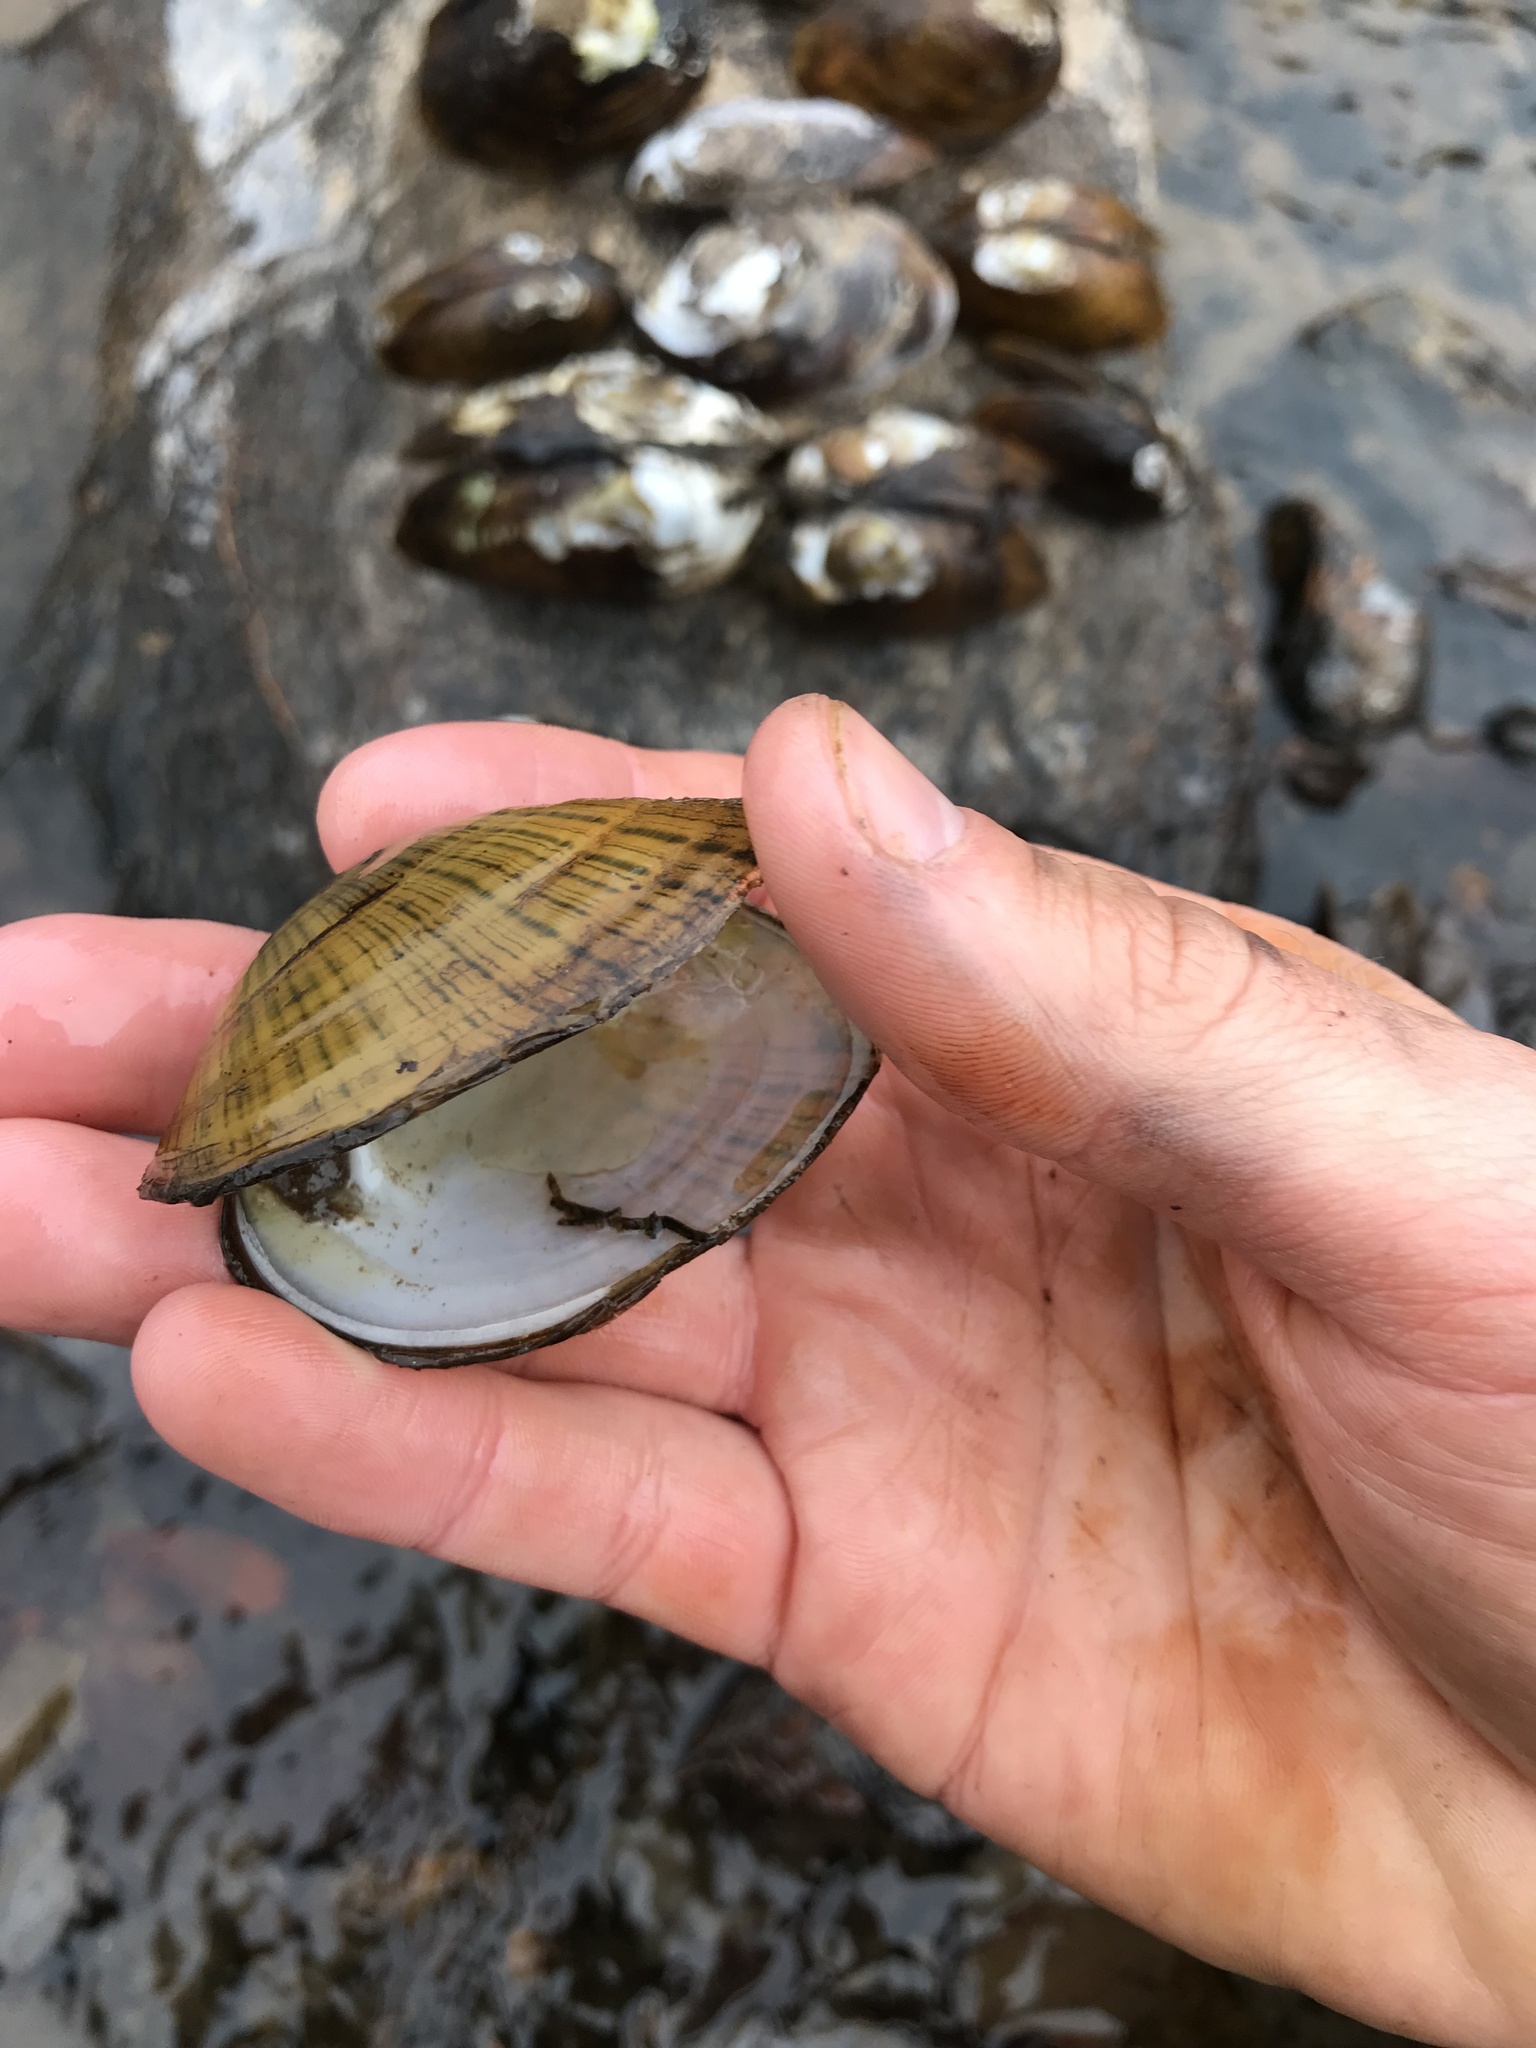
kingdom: Animalia
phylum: Mollusca
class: Bivalvia
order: Unionida
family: Unionidae
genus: Lampsilis
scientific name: Lampsilis fasciola
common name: Wavyrayed lampmussel
